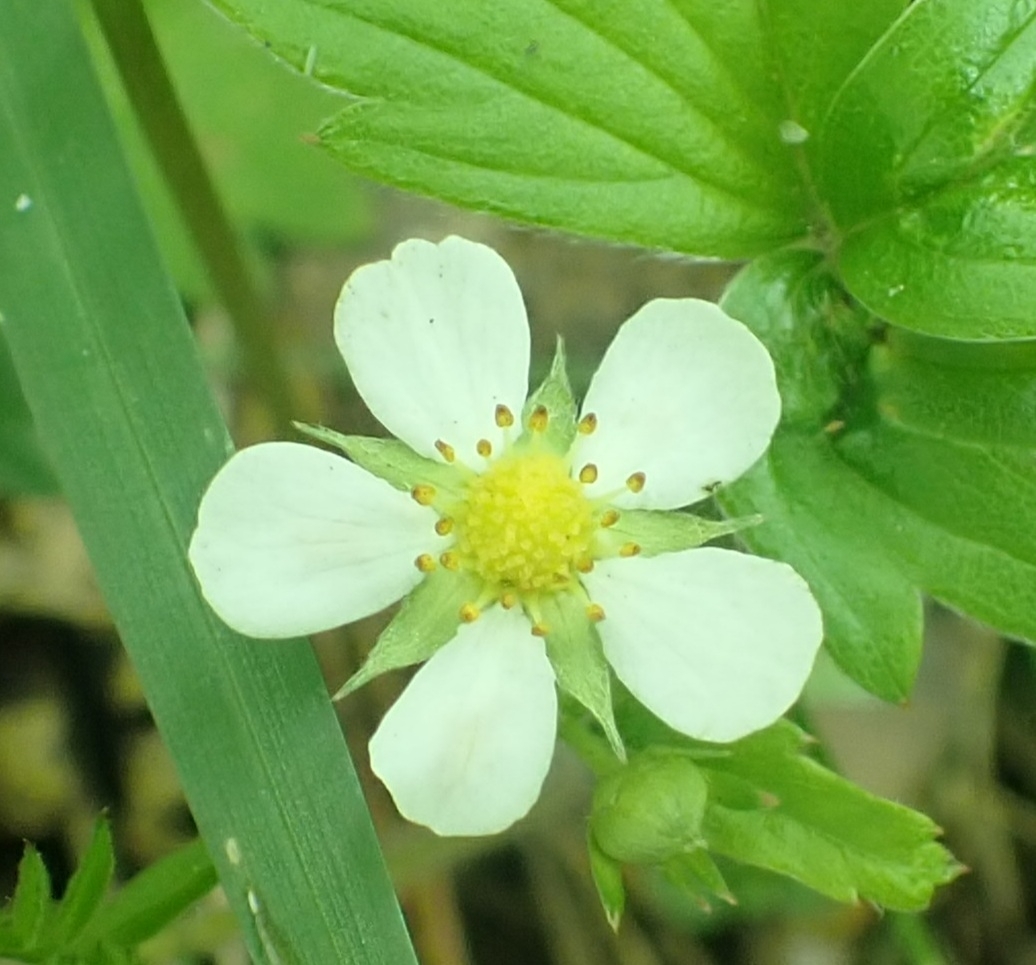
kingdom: Plantae
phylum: Tracheophyta
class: Magnoliopsida
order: Rosales
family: Rosaceae
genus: Fragaria
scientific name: Fragaria vesca
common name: Wild strawberry
